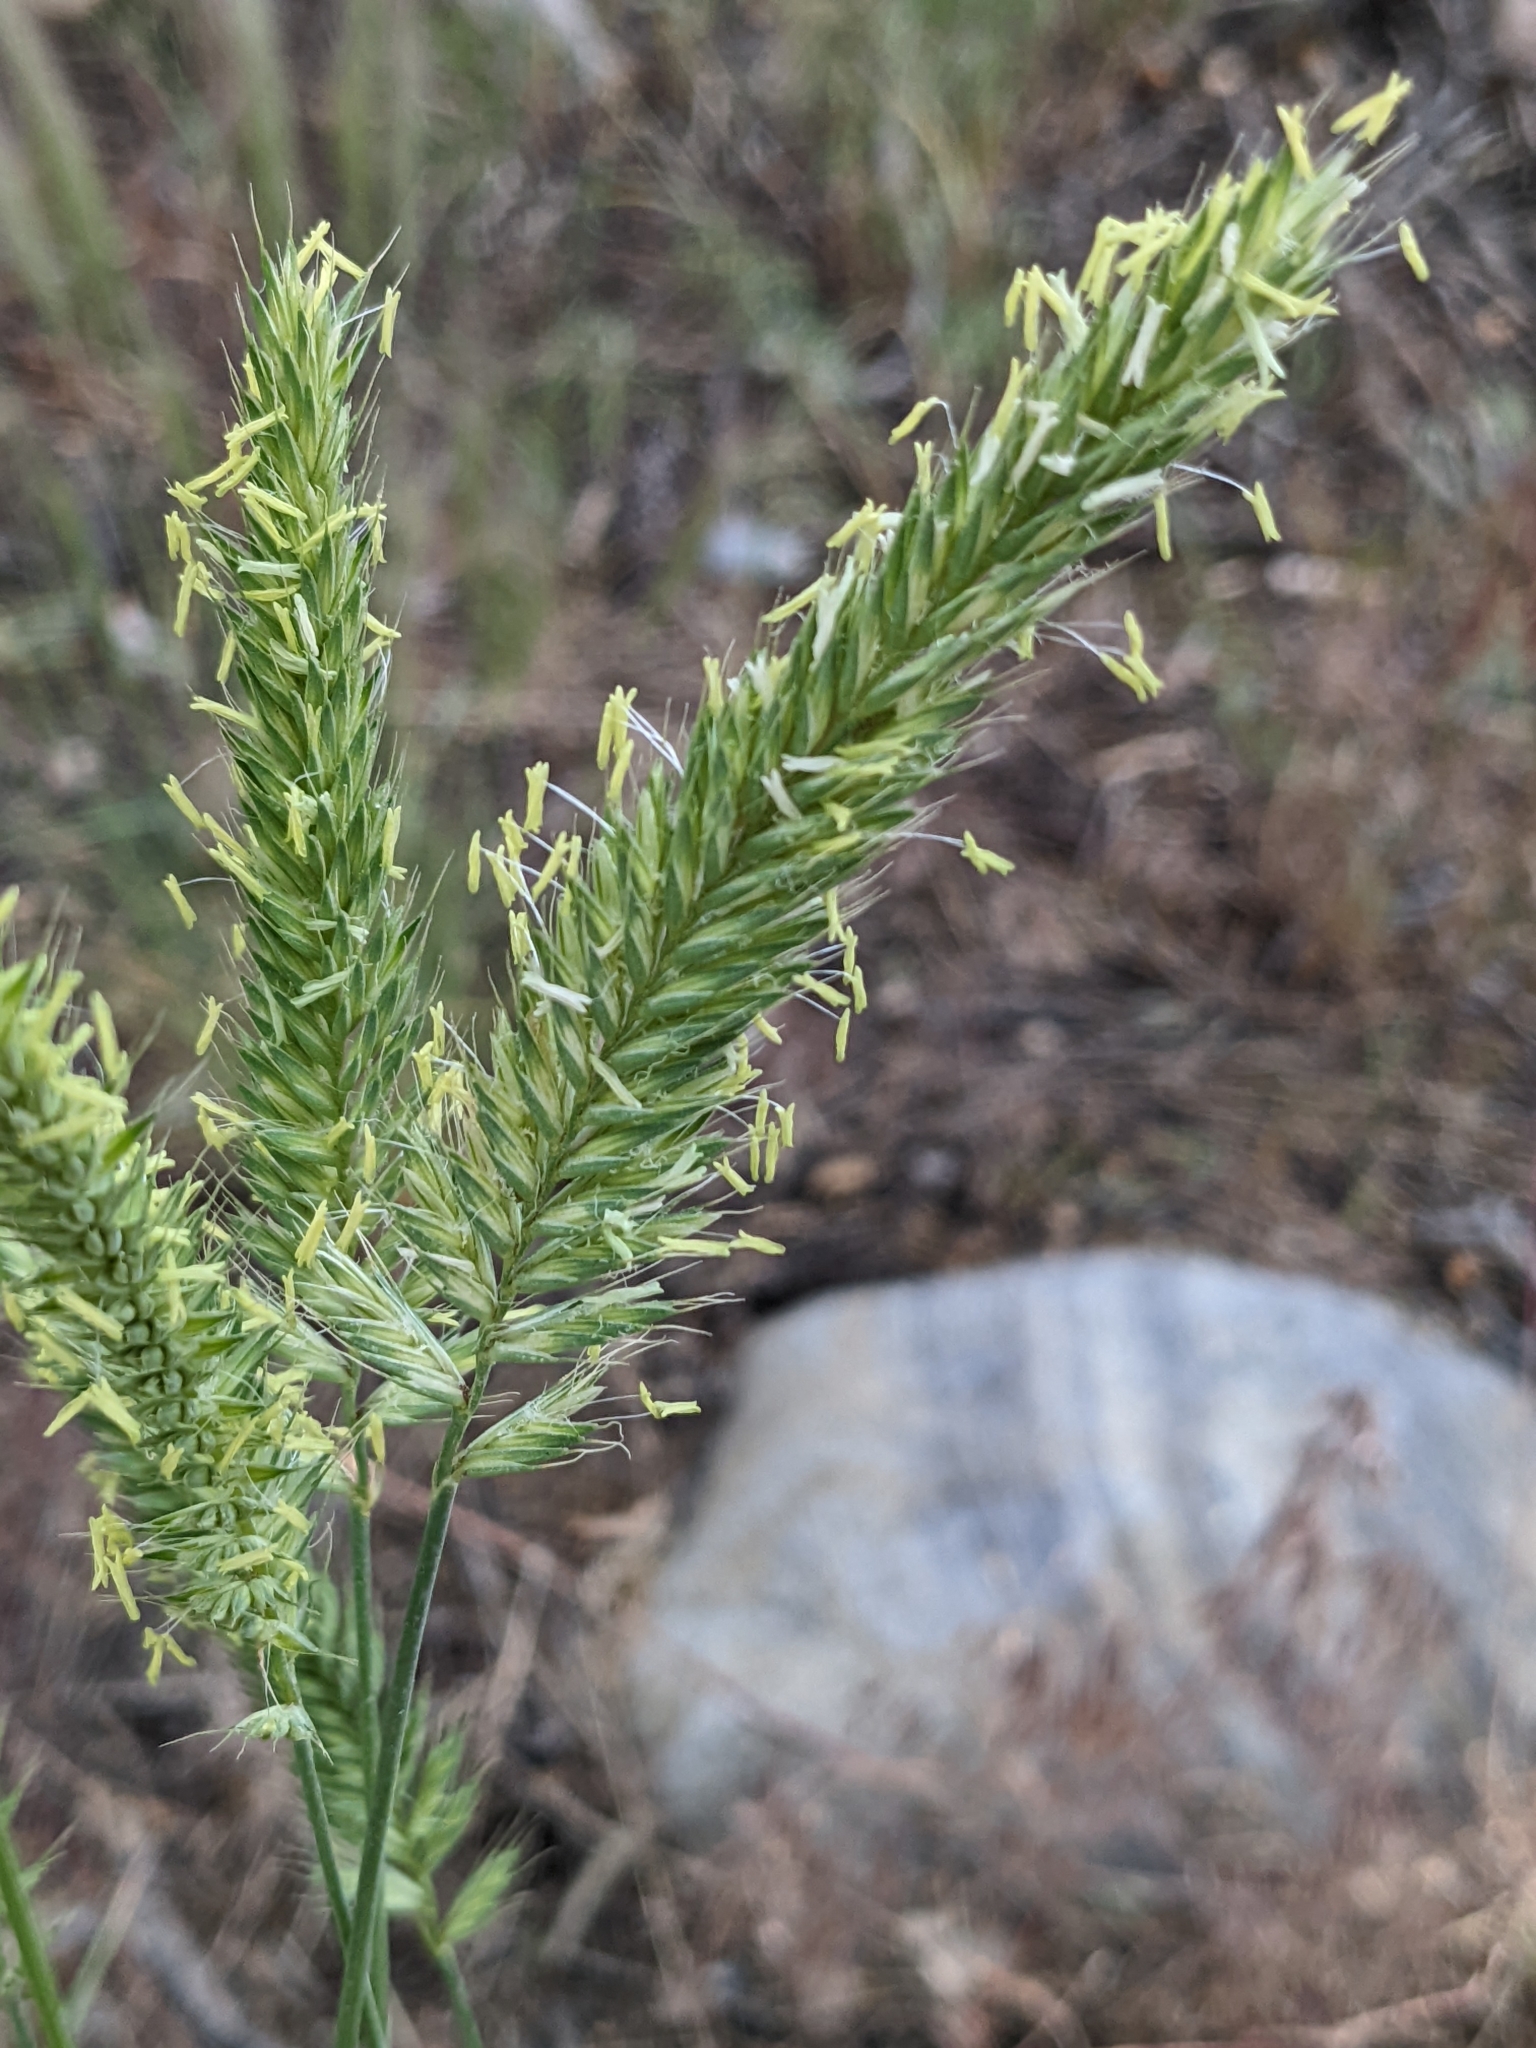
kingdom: Plantae
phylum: Tracheophyta
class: Liliopsida
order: Poales
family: Poaceae
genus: Agropyron
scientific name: Agropyron cristatum
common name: Crested wheatgrass
